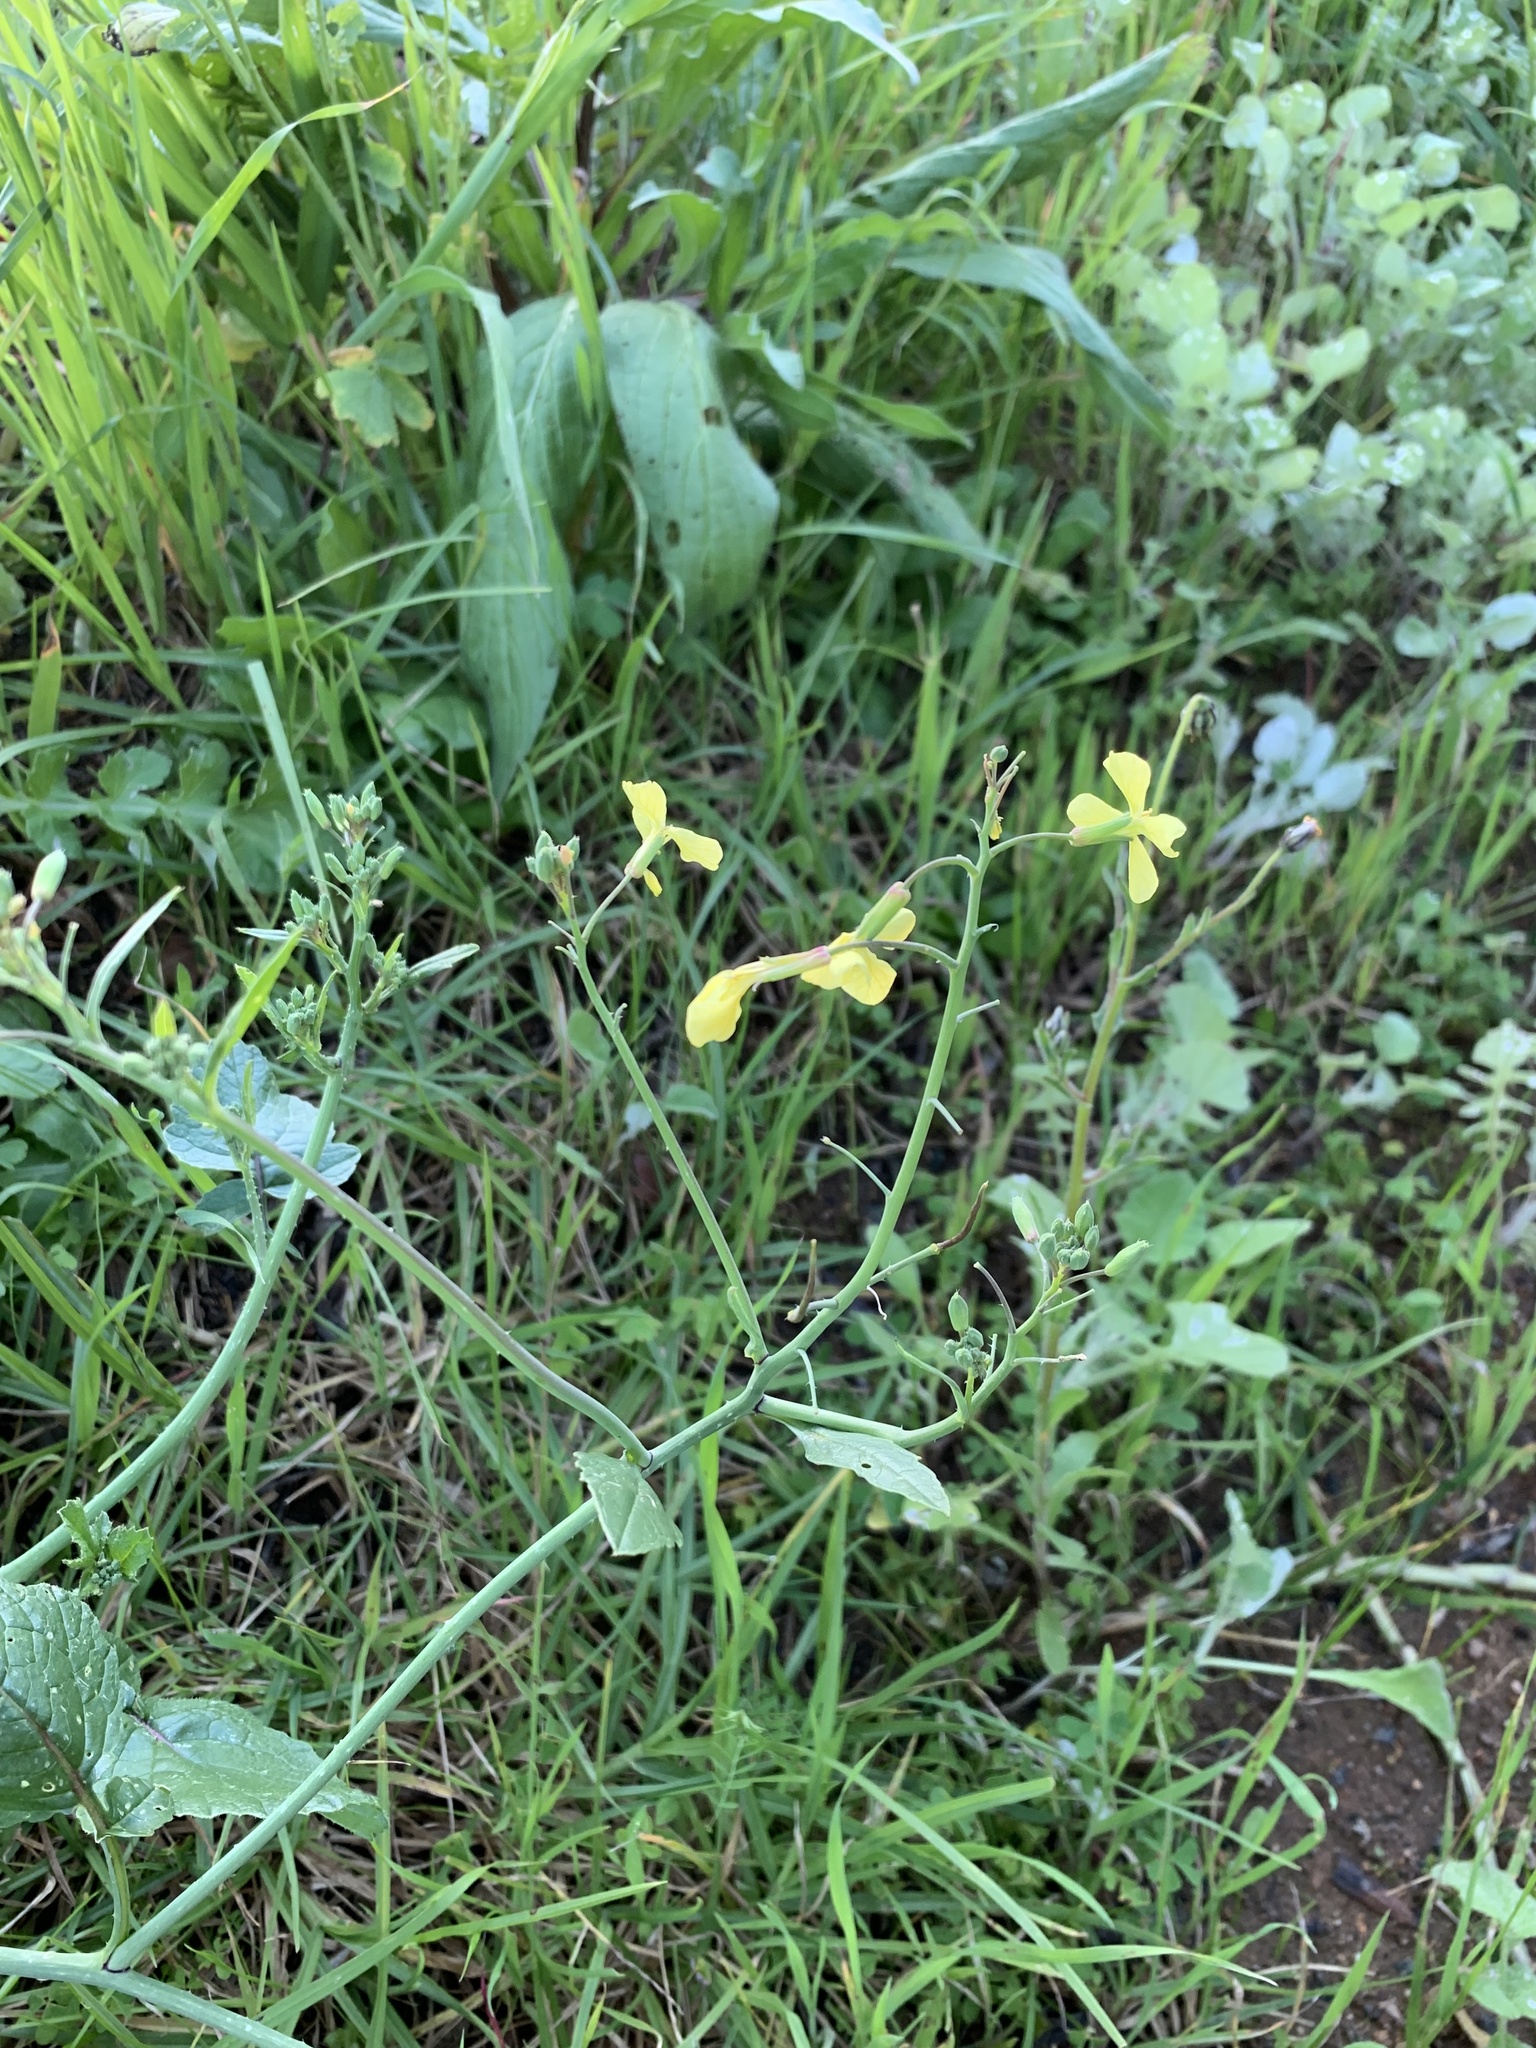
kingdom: Plantae
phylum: Tracheophyta
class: Magnoliopsida
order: Brassicales
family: Brassicaceae
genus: Raphanus
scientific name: Raphanus raphanistrum
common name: Wild radish
